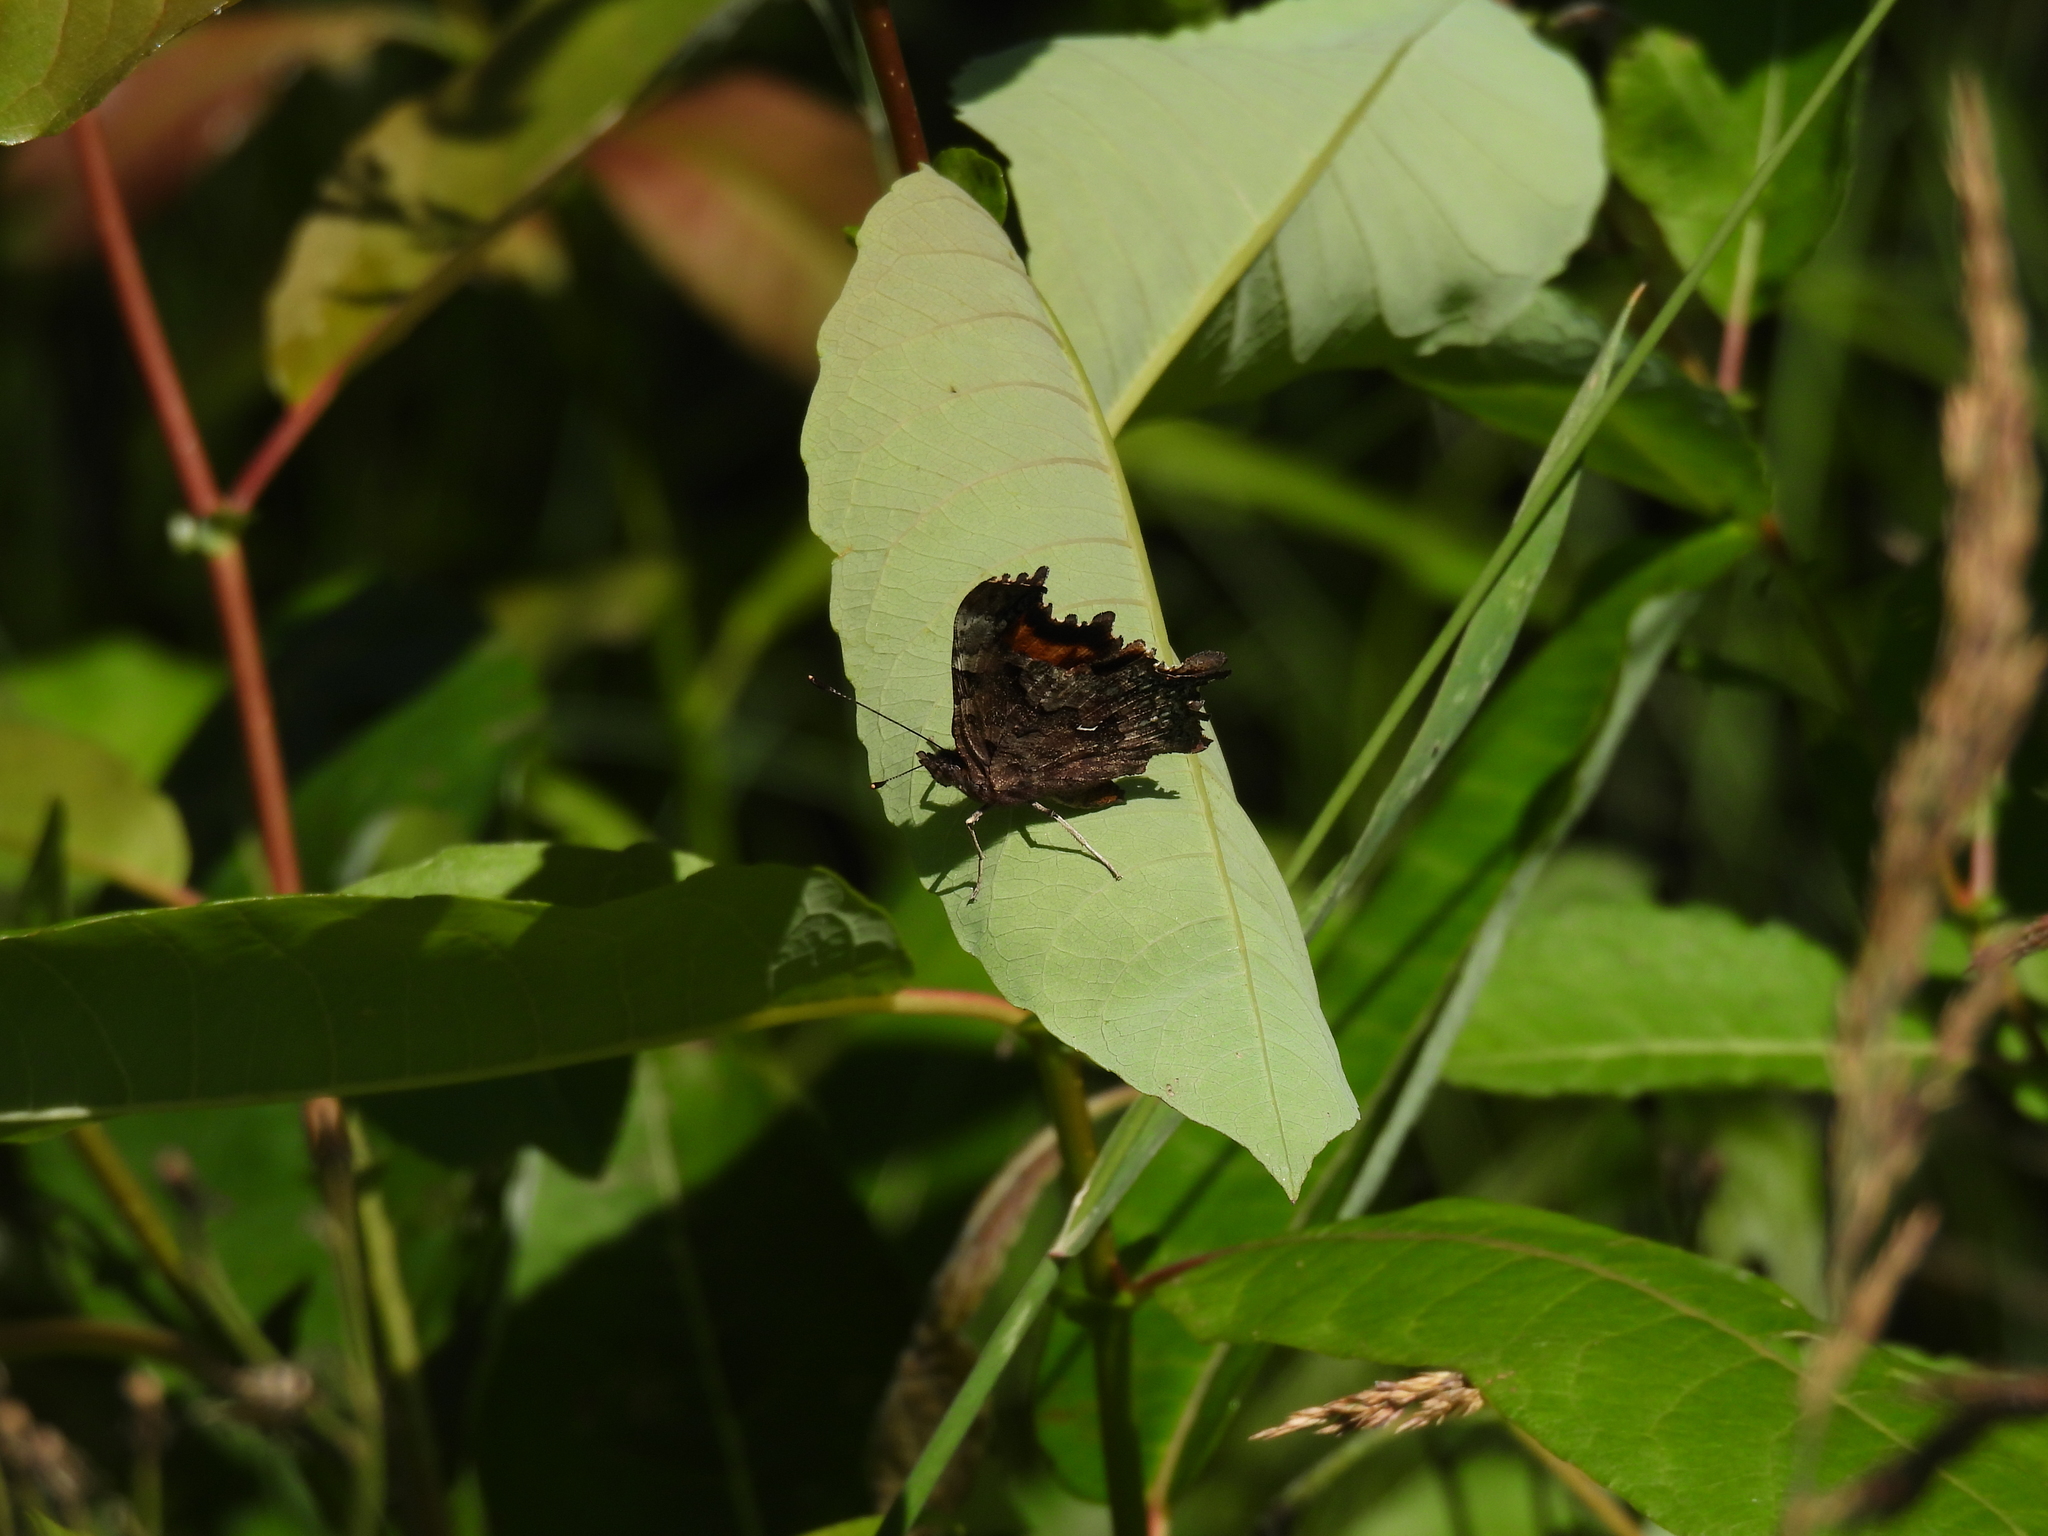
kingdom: Animalia
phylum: Arthropoda
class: Insecta
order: Lepidoptera
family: Nymphalidae
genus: Polygonia
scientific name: Polygonia faunus
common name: Green comma
